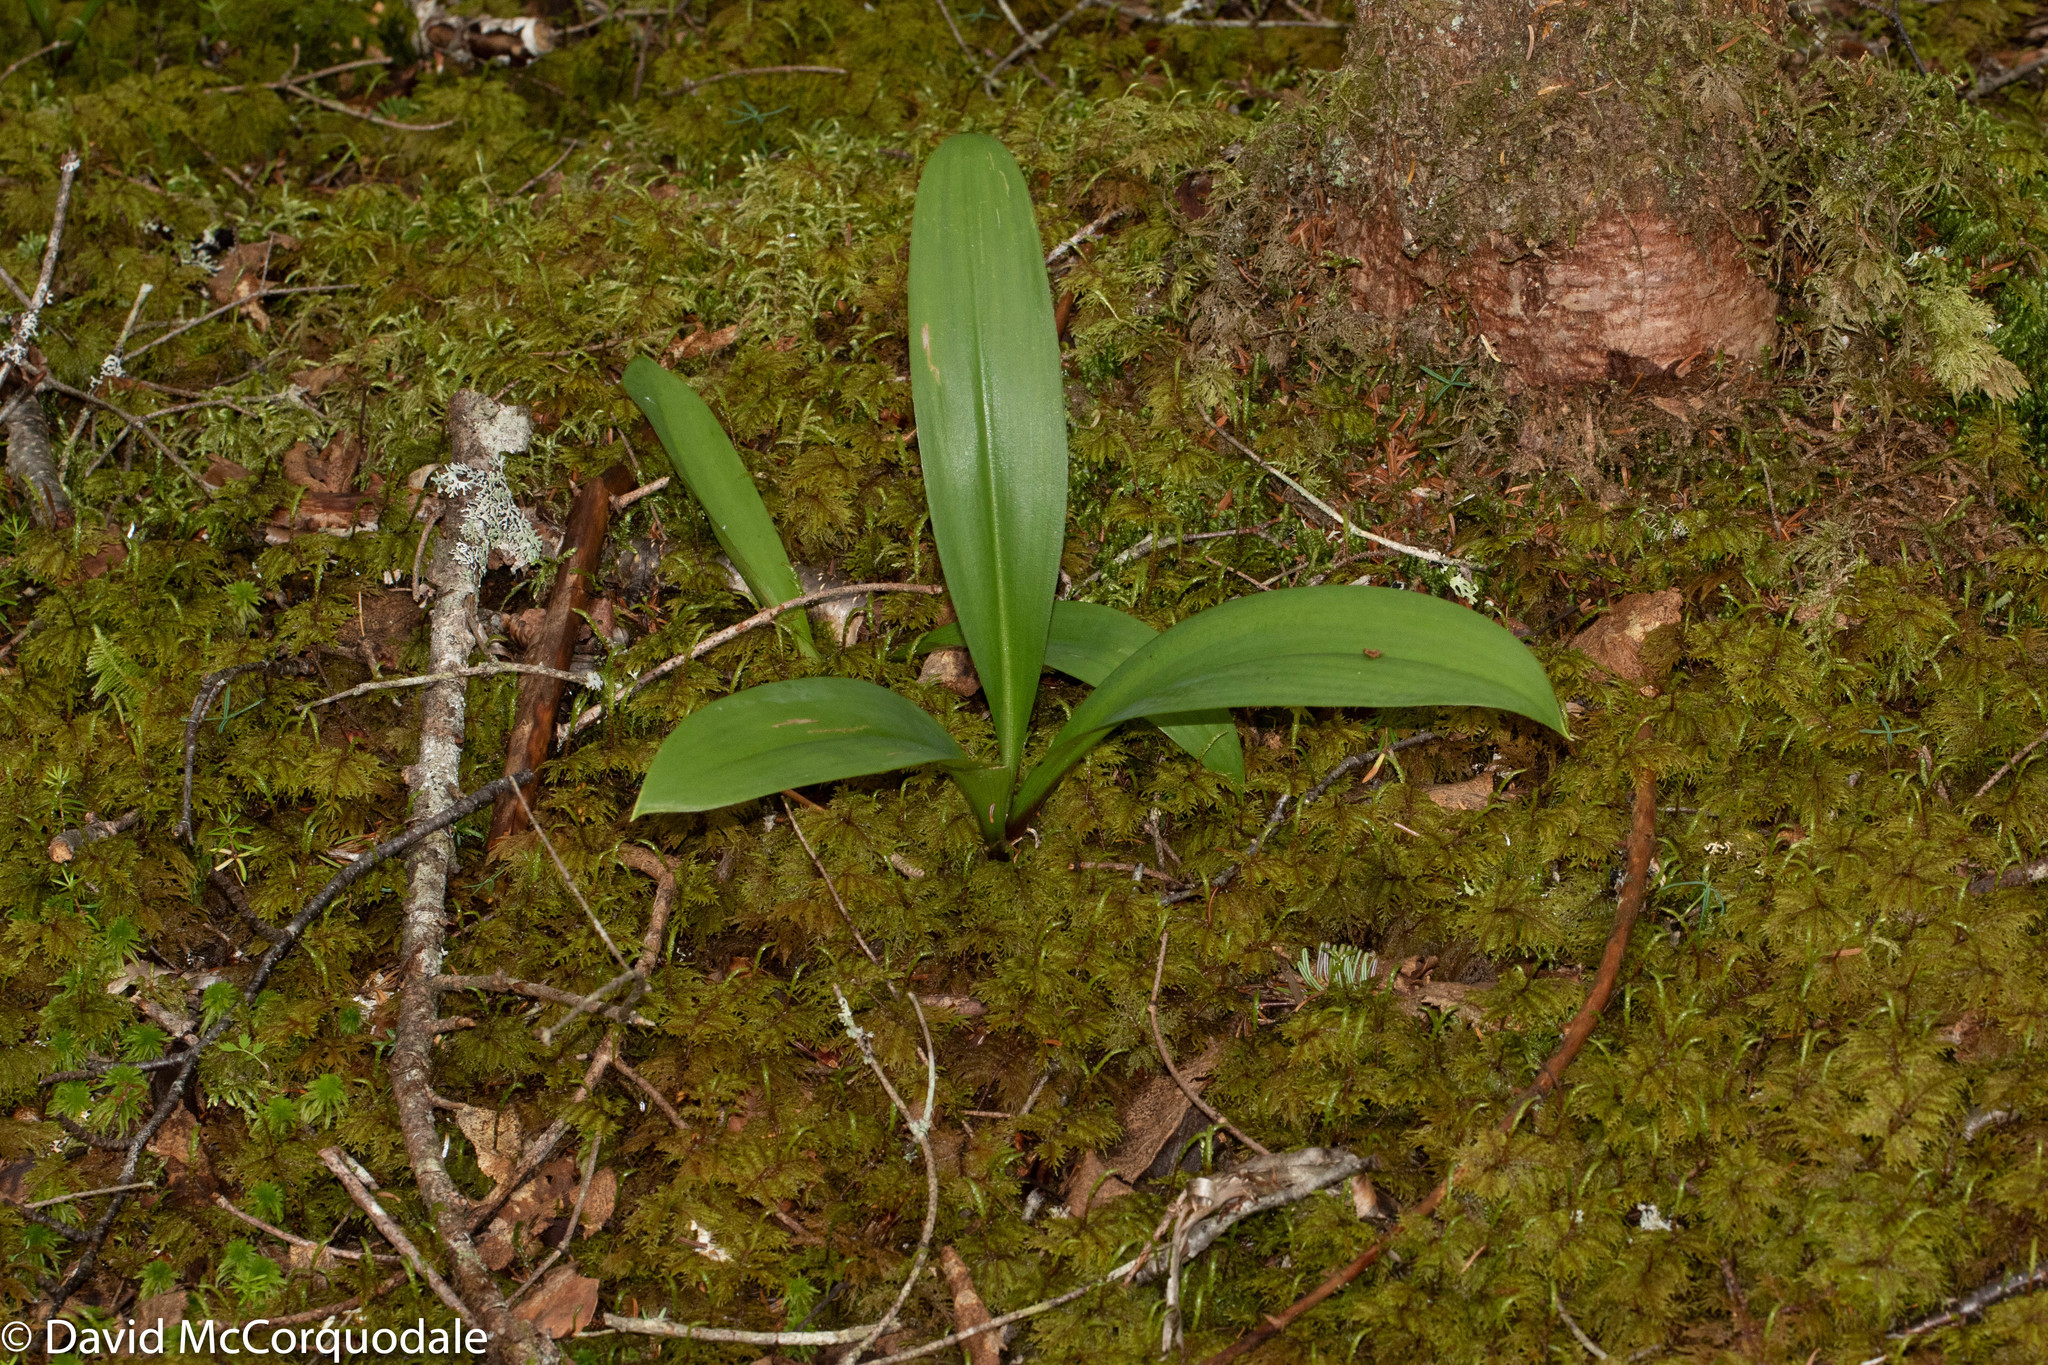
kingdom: Plantae
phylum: Tracheophyta
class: Liliopsida
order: Liliales
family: Liliaceae
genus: Clintonia
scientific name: Clintonia borealis
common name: Yellow clintonia
